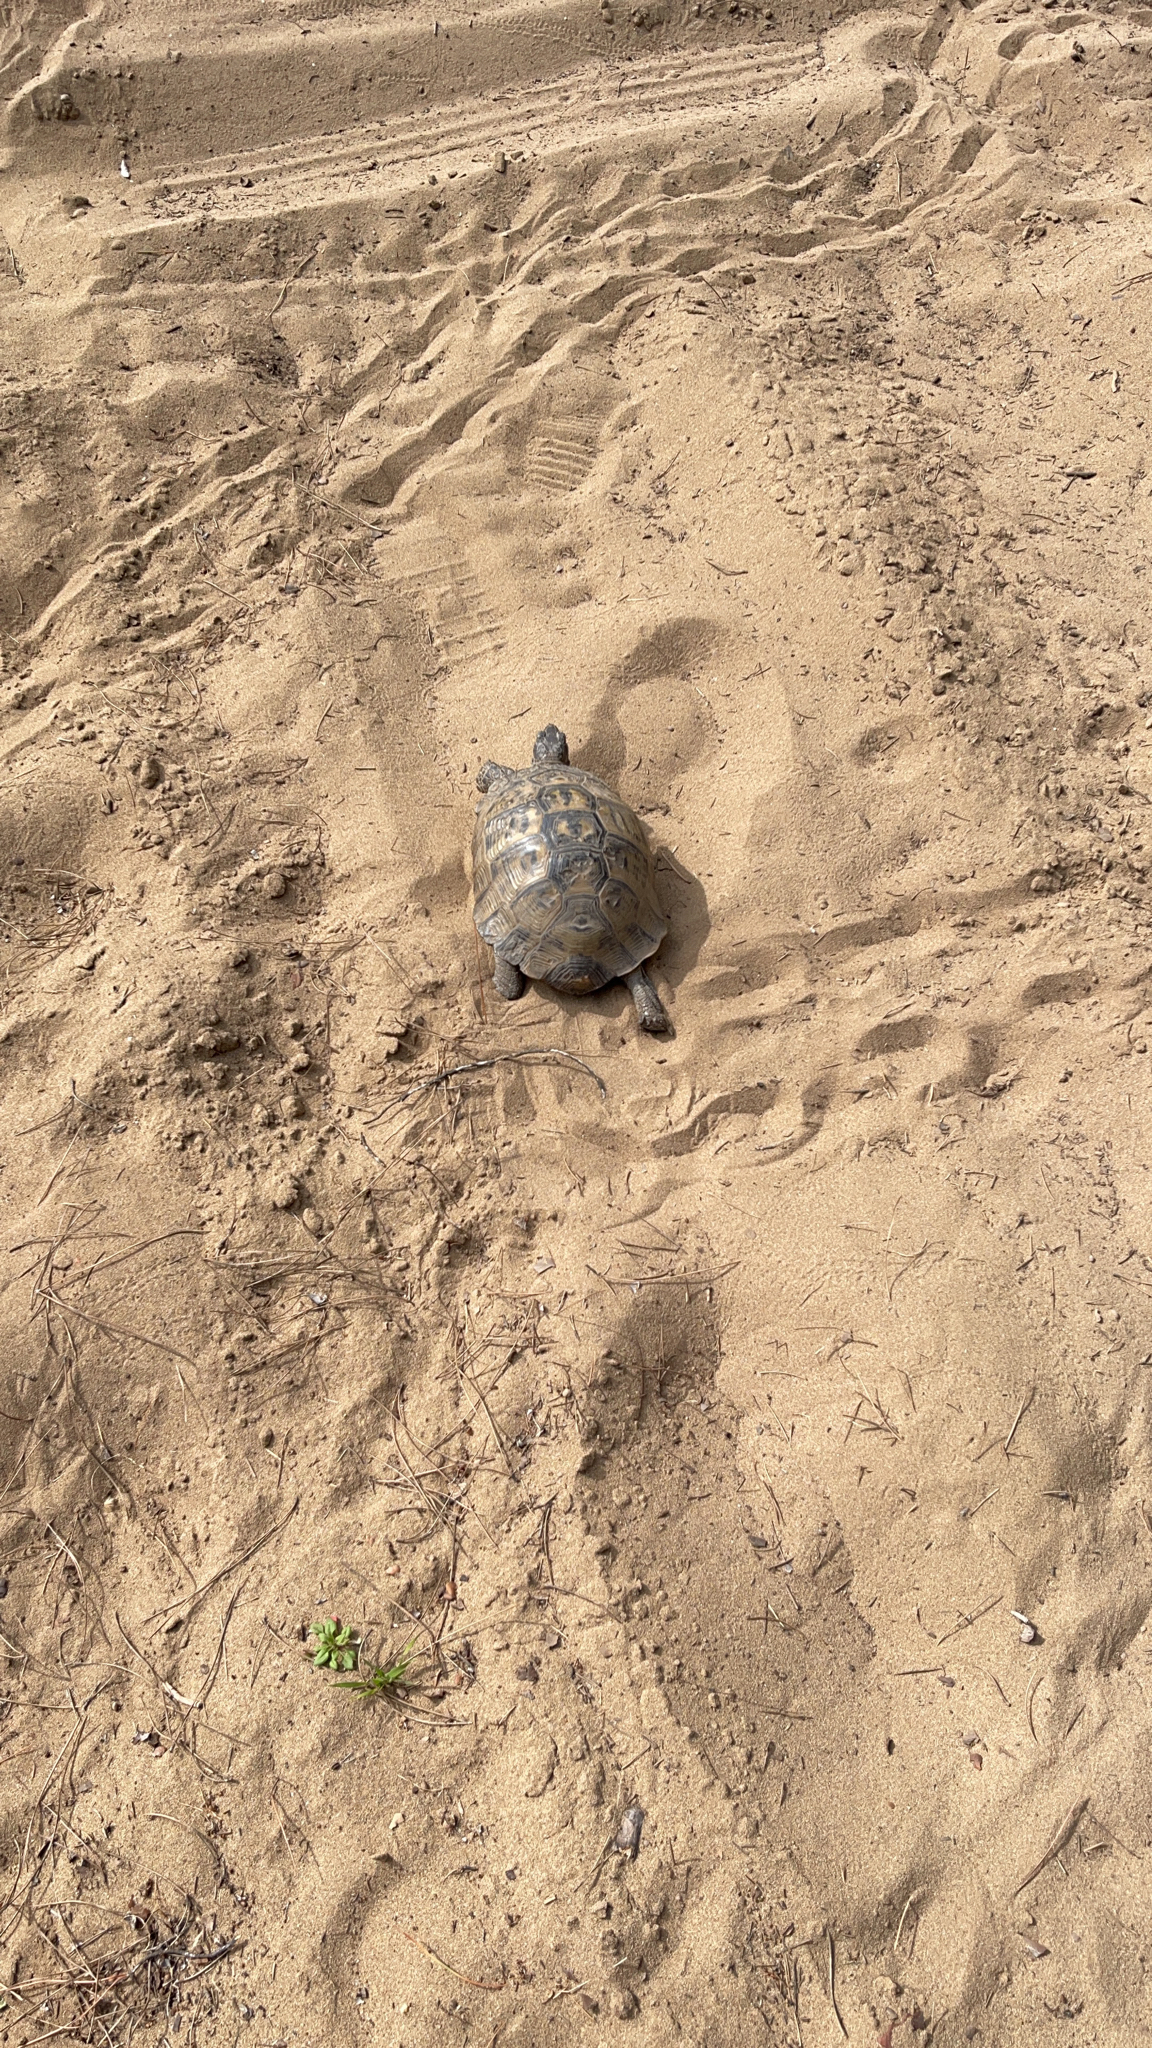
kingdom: Animalia
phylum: Chordata
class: Testudines
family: Testudinidae
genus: Testudo
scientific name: Testudo graeca
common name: Common tortoise
